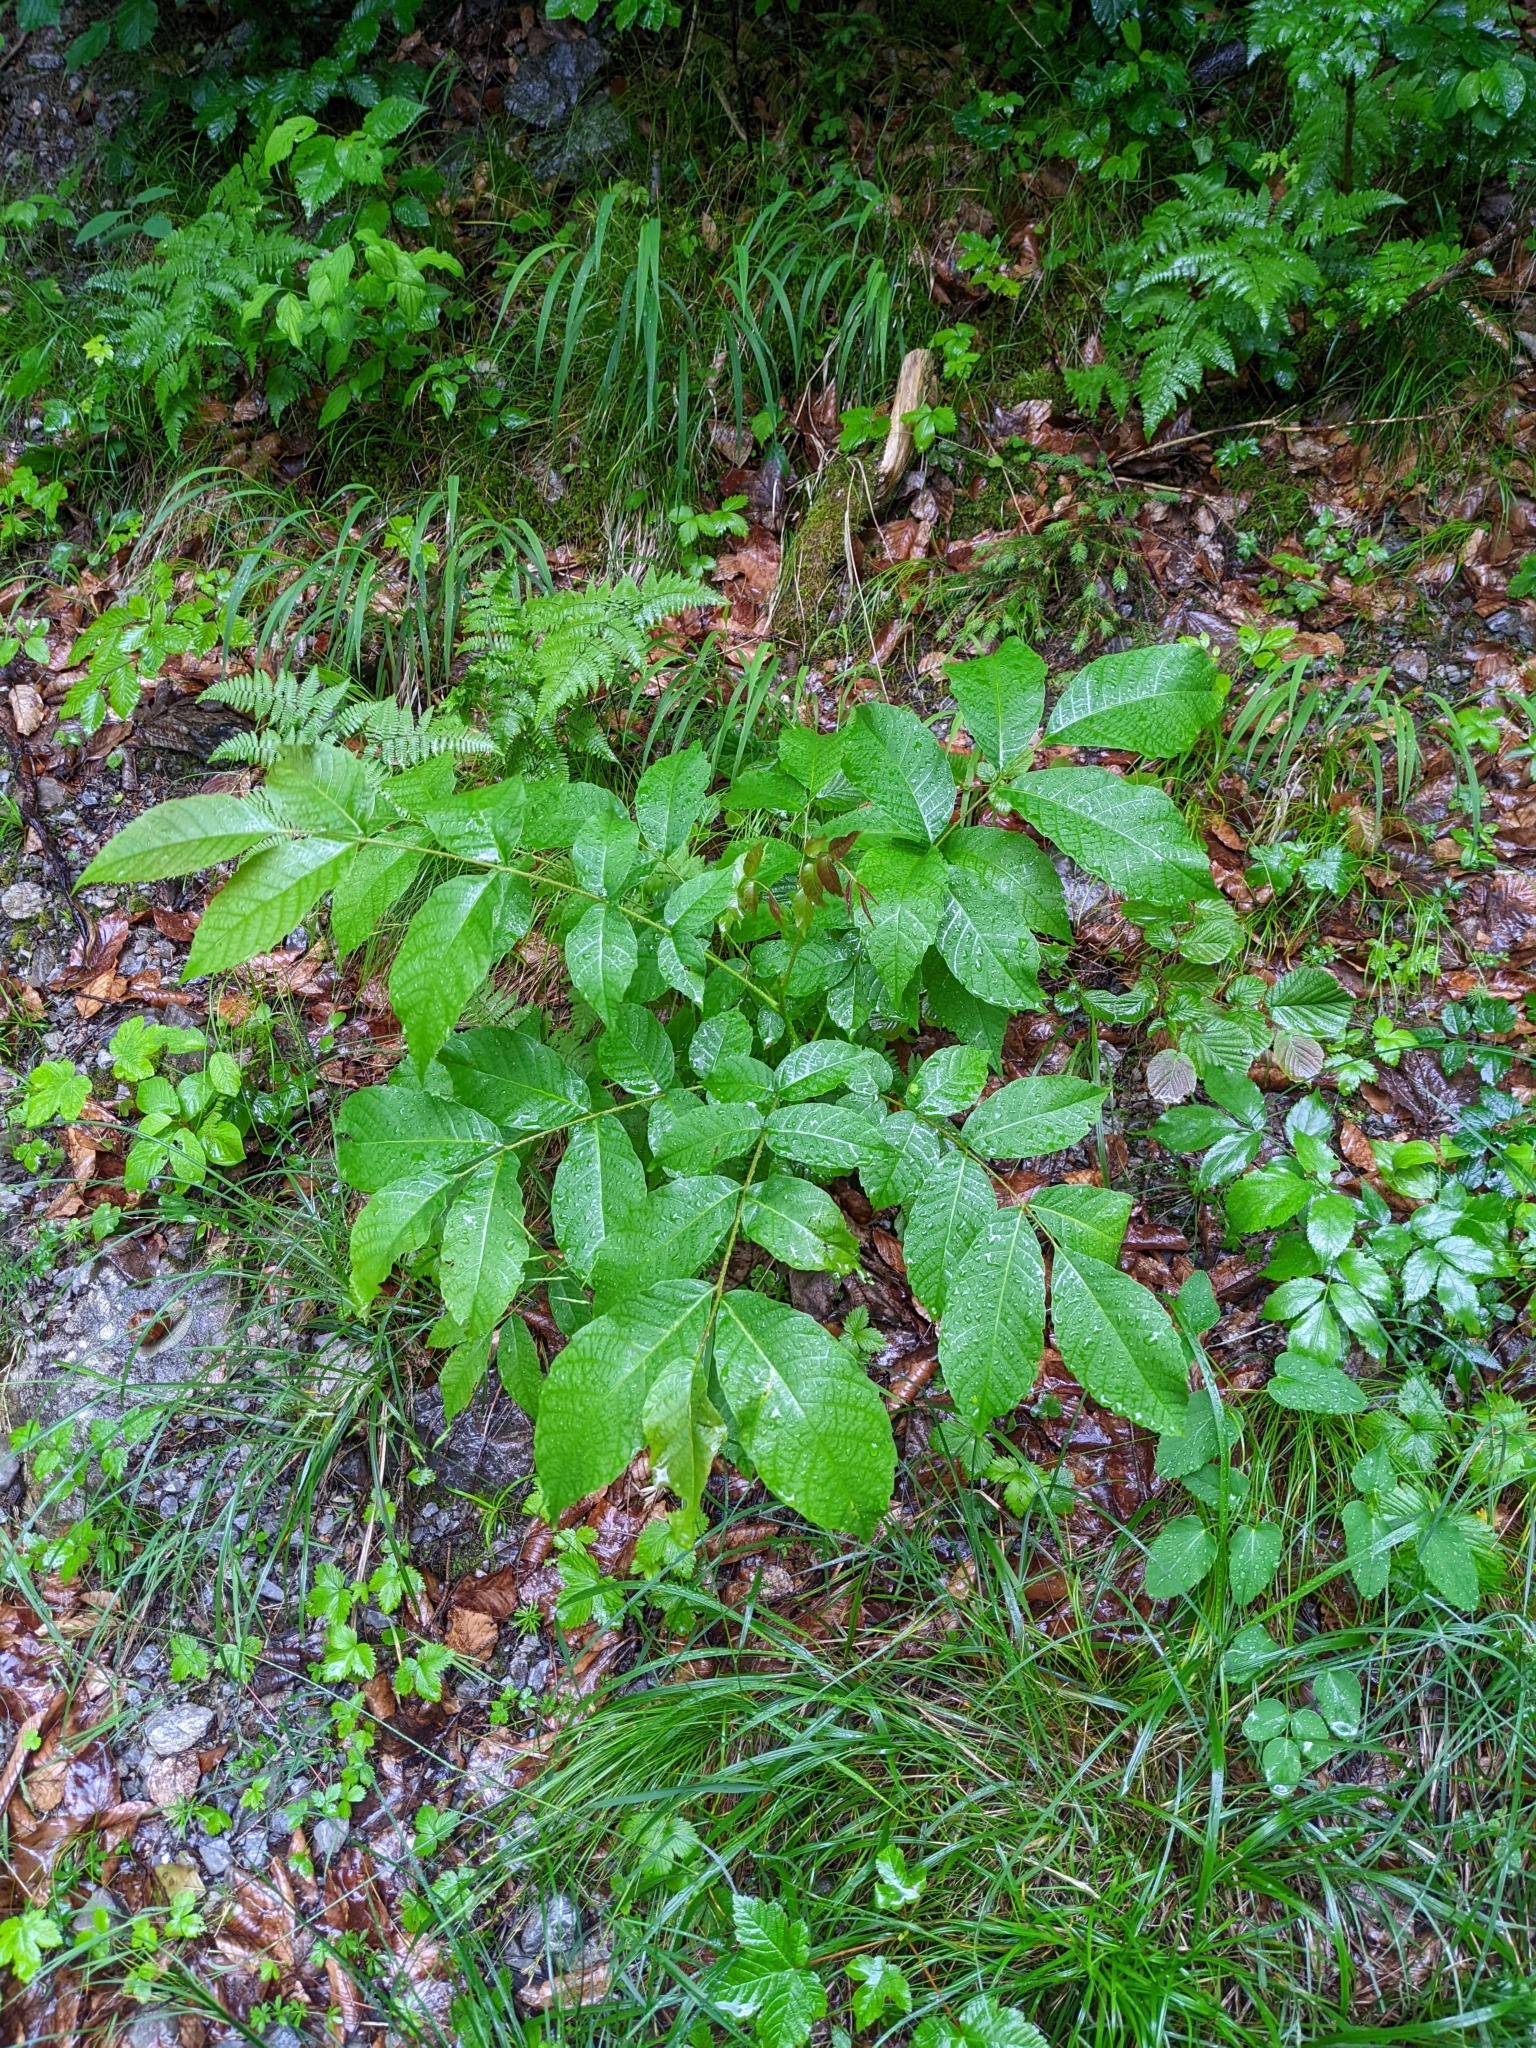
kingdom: Plantae
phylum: Tracheophyta
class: Magnoliopsida
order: Fagales
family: Juglandaceae
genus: Juglans
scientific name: Juglans regia
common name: Walnut
